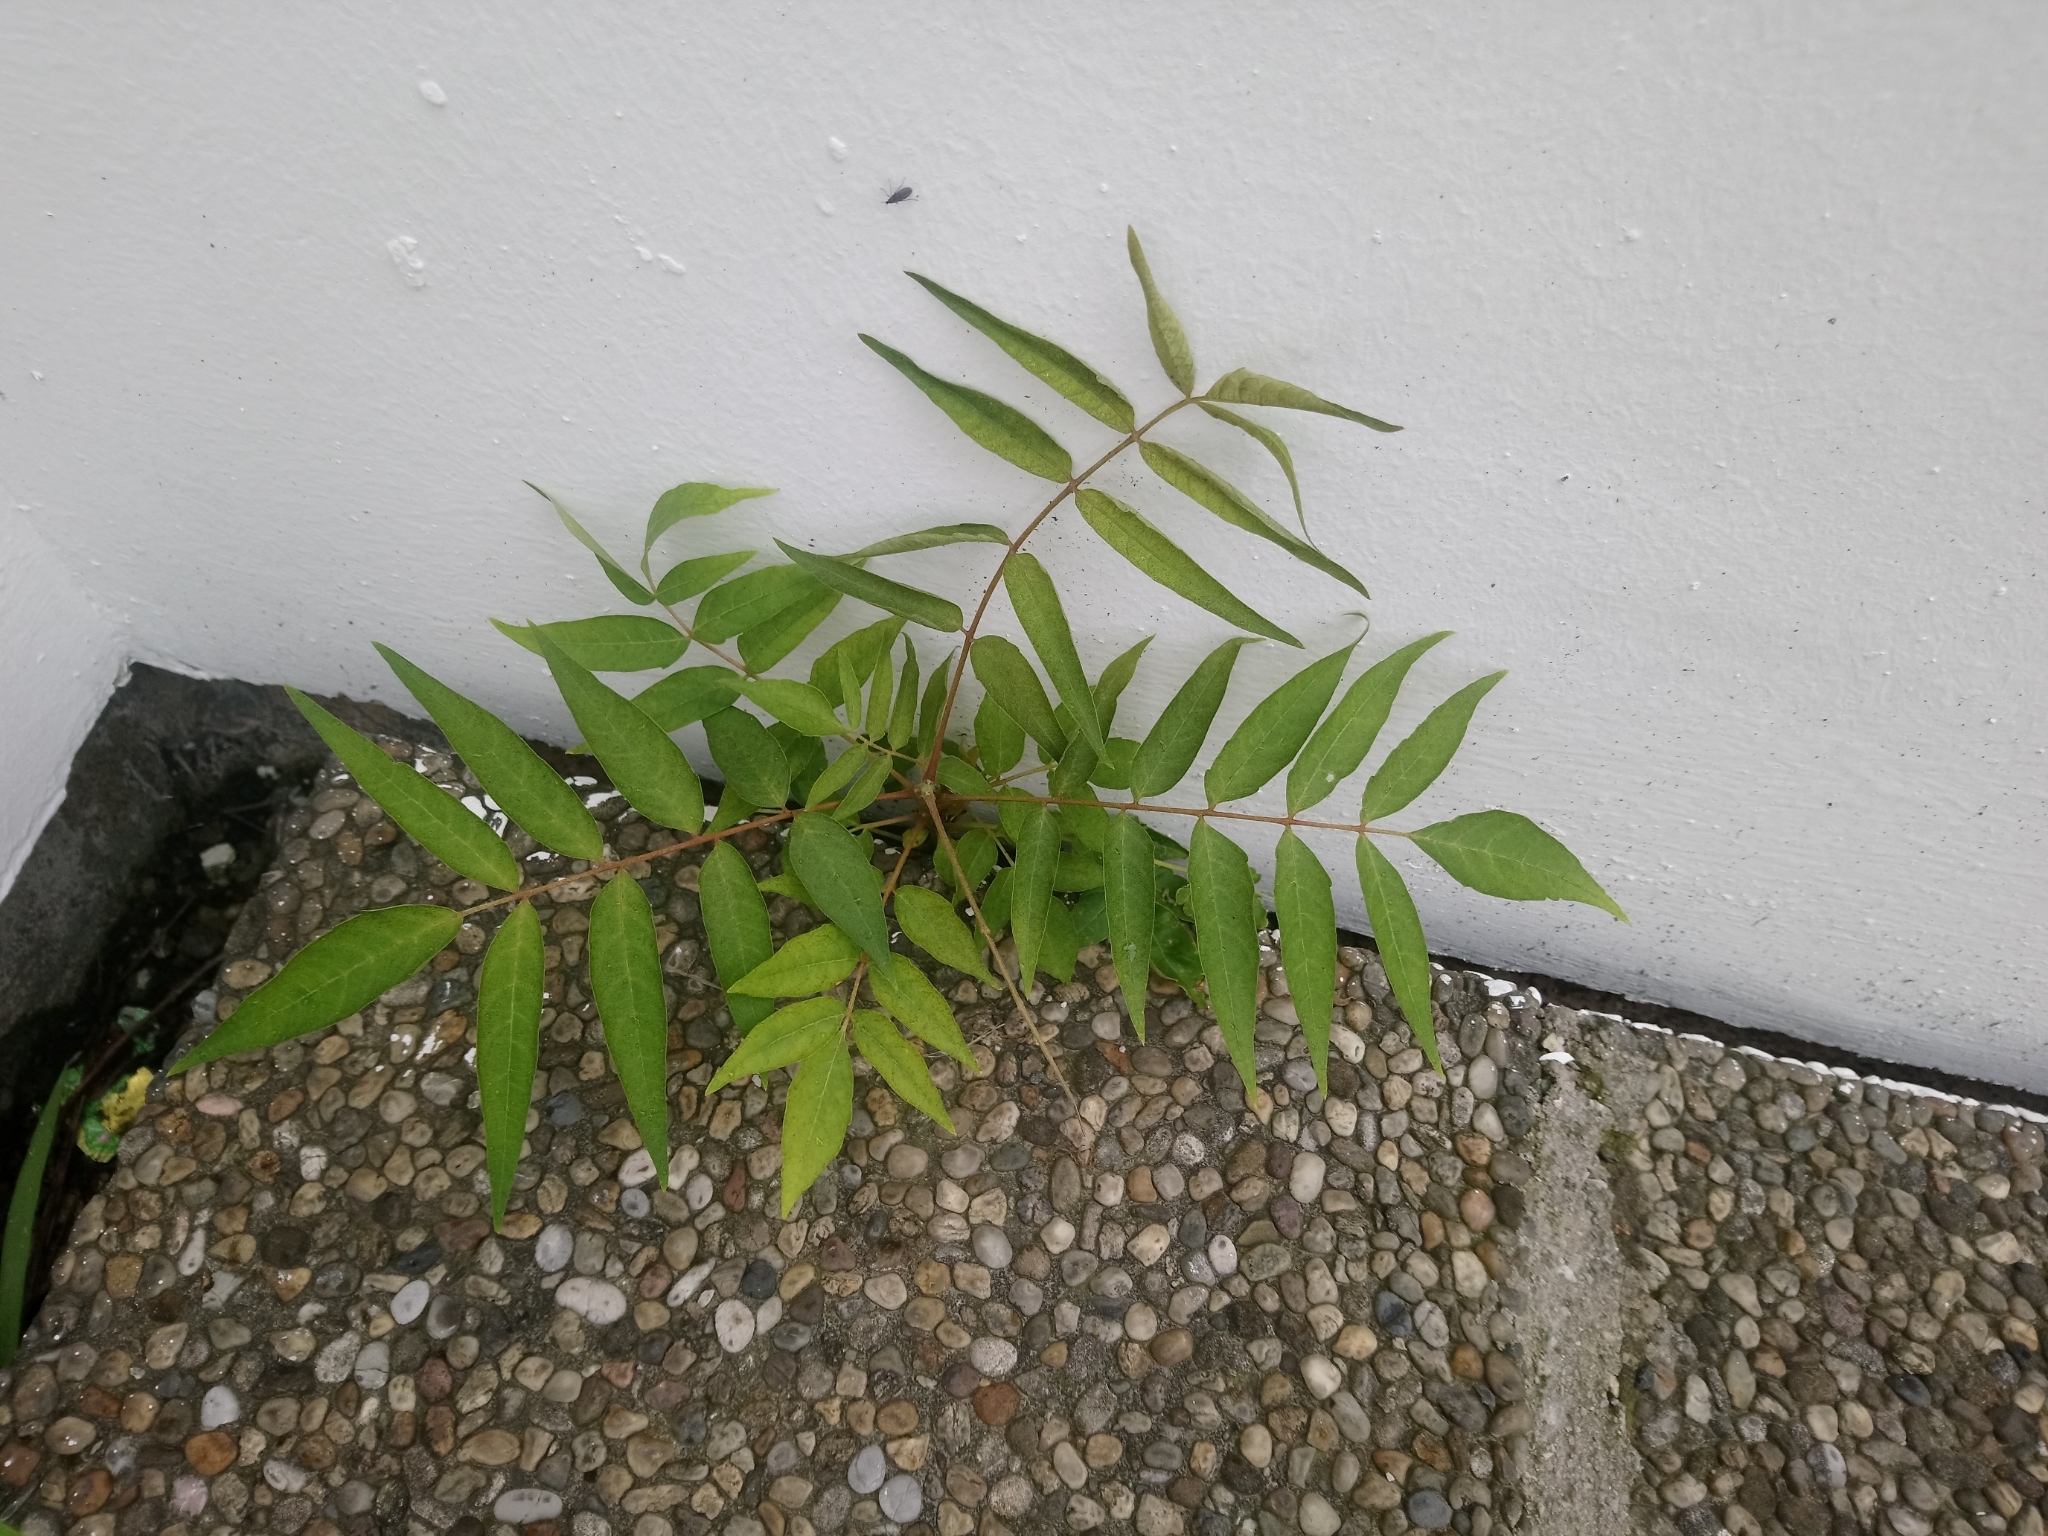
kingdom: Plantae
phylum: Tracheophyta
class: Magnoliopsida
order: Sapindales
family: Simaroubaceae
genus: Ailanthus
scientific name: Ailanthus altissima
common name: Tree-of-heaven
